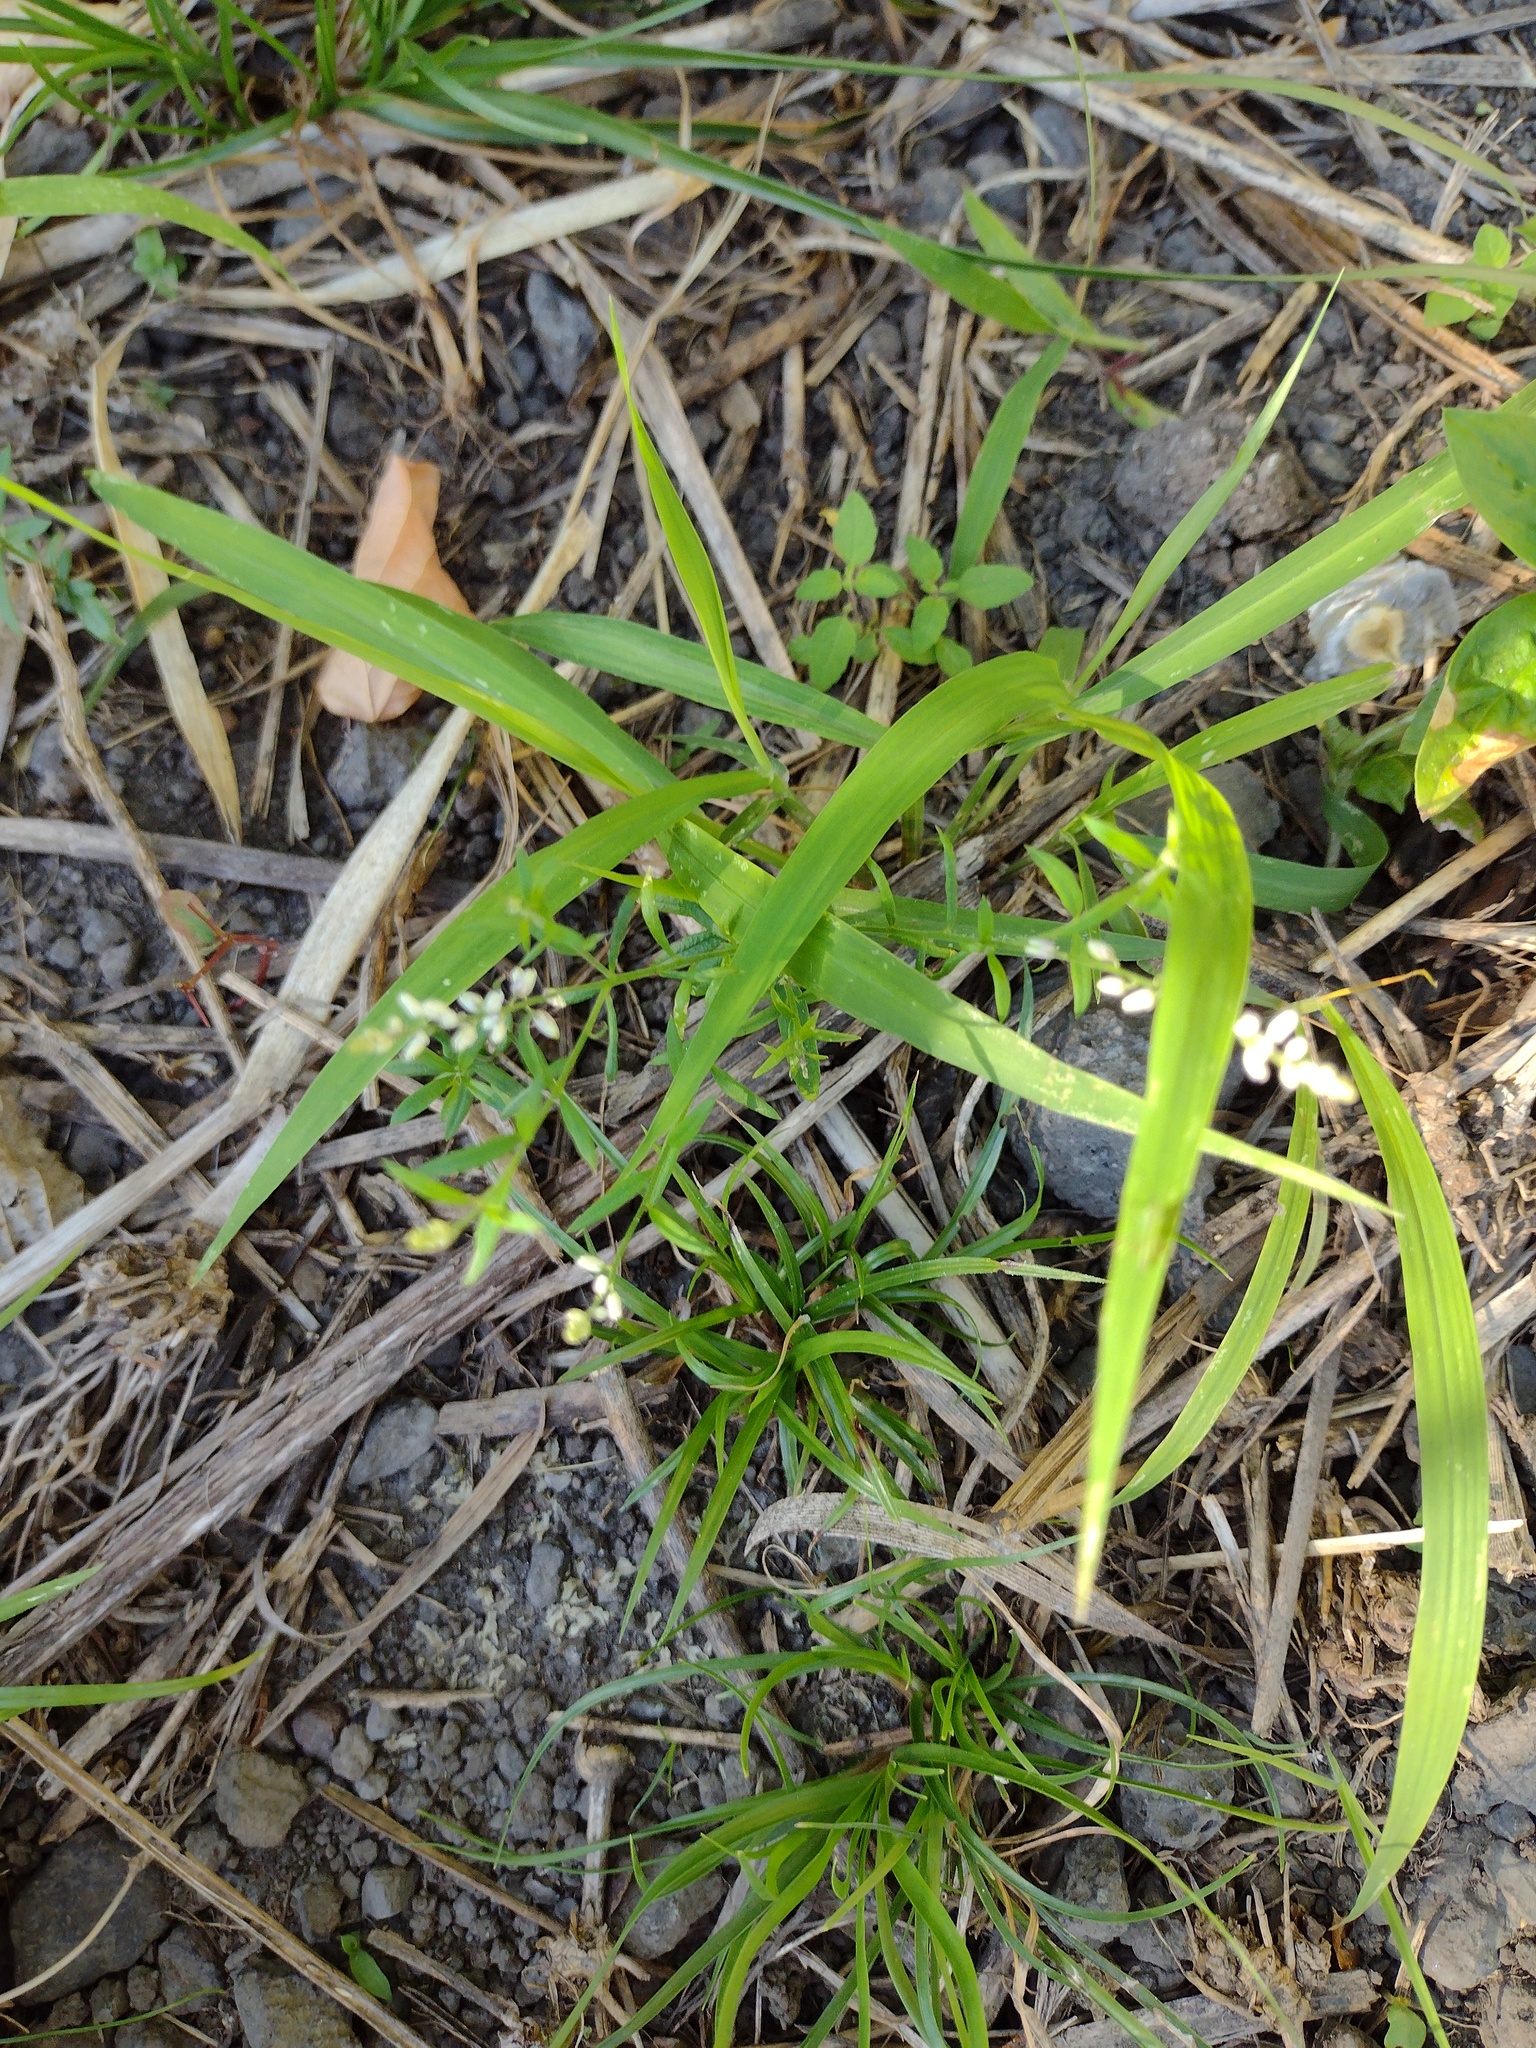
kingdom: Plantae
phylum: Tracheophyta
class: Magnoliopsida
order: Fabales
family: Polygalaceae
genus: Polygala
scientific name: Polygala paniculata
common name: Orosne
